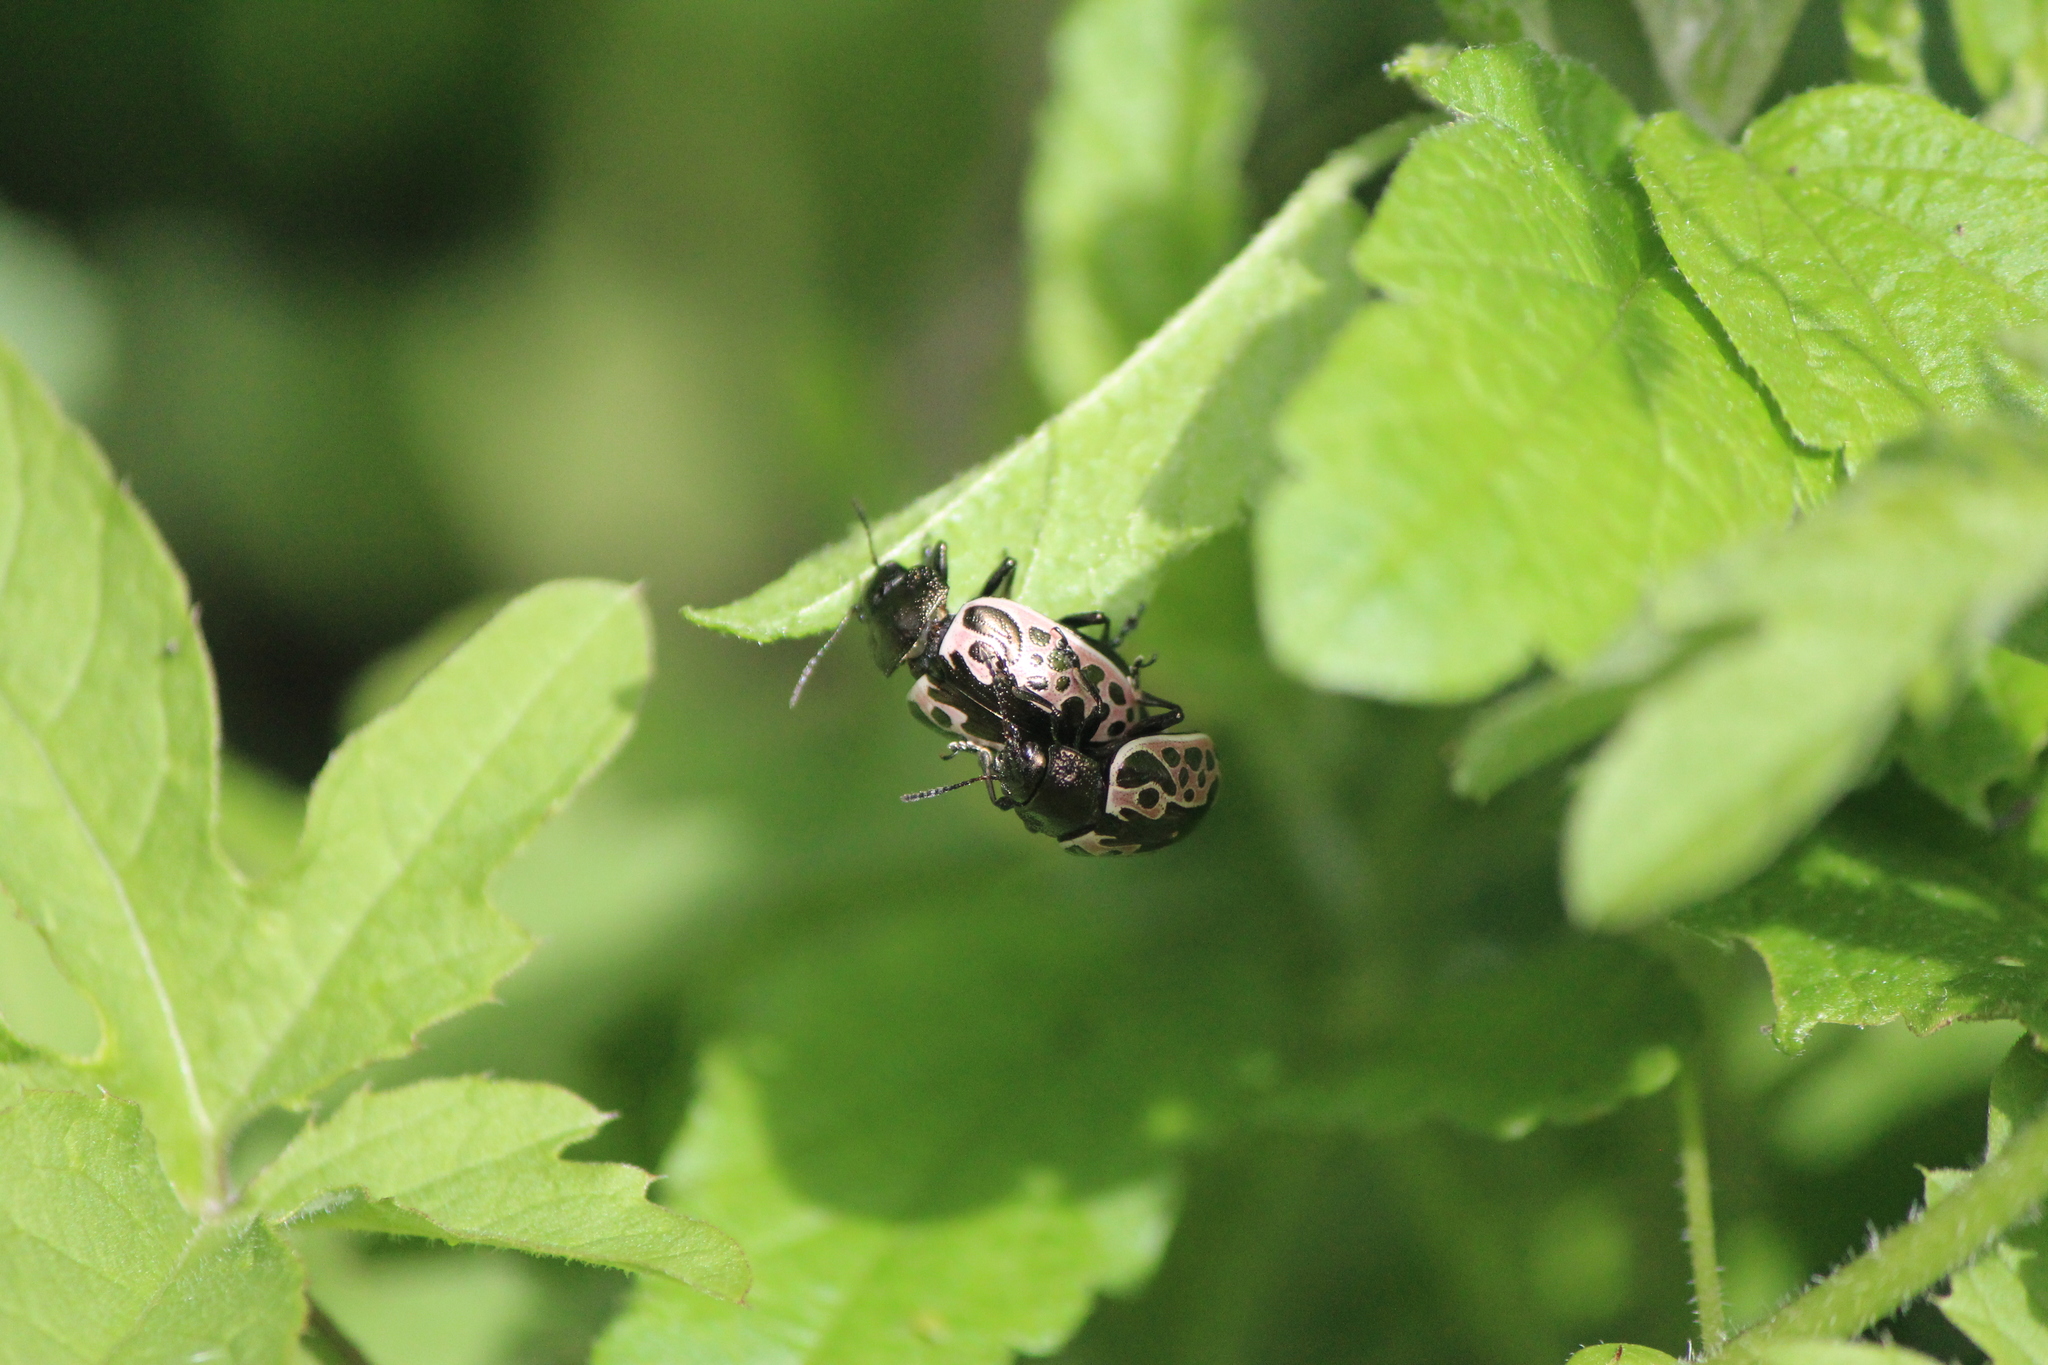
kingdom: Animalia
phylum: Arthropoda
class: Insecta
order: Coleoptera
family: Chrysomelidae
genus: Calligrapha
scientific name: Calligrapha diversa
